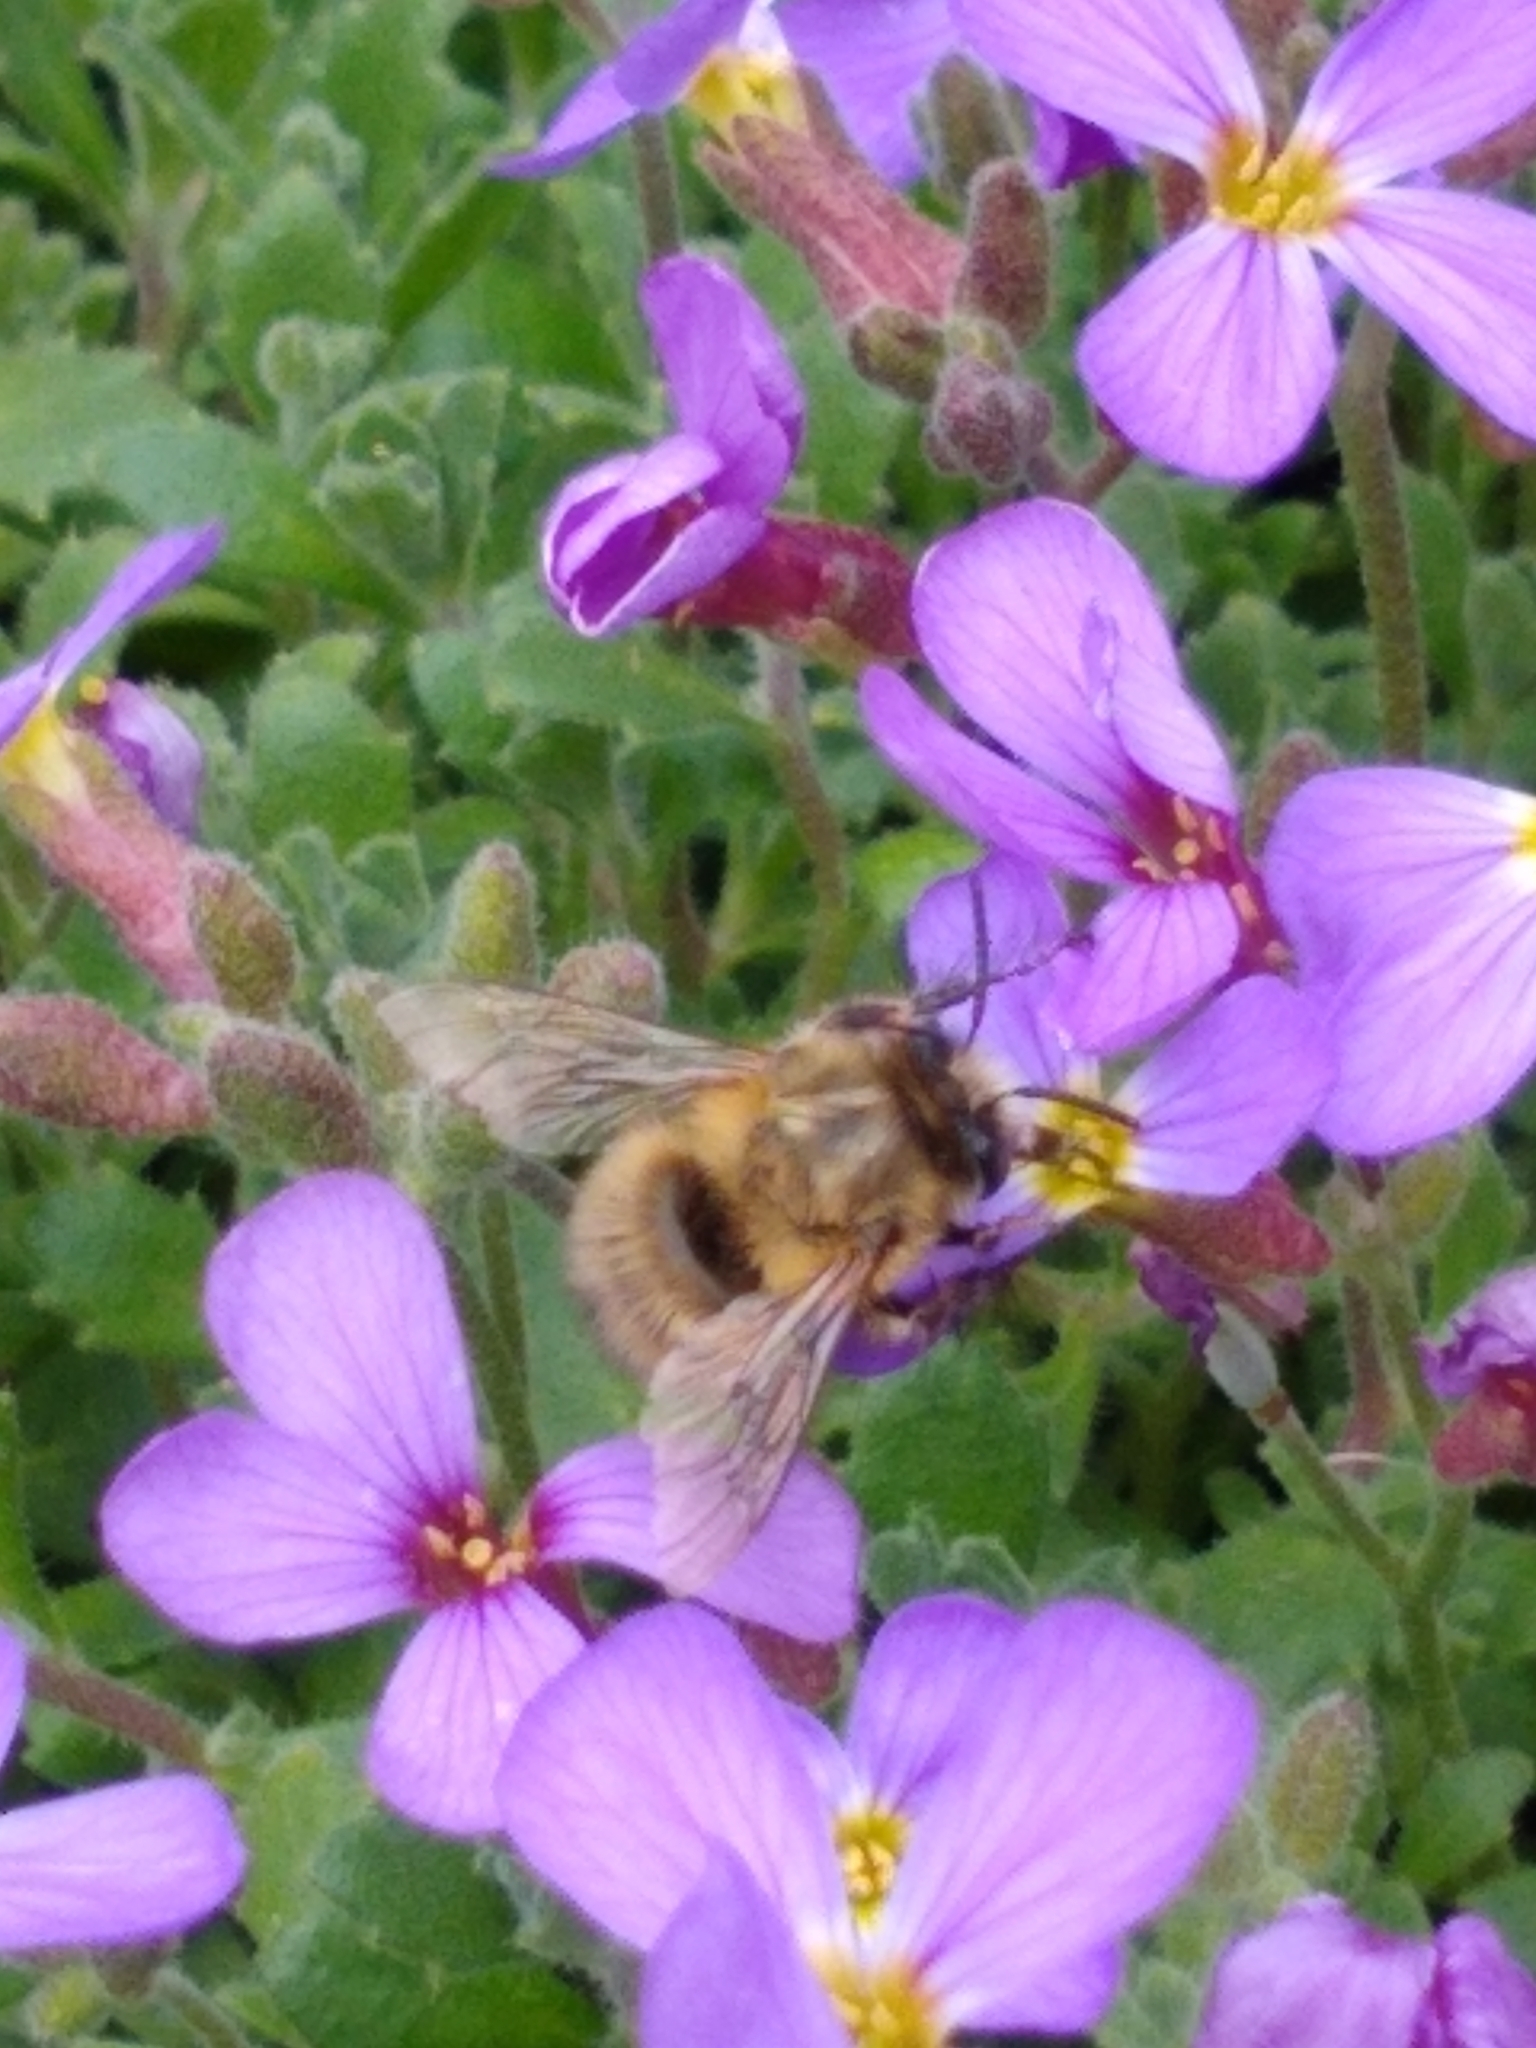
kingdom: Animalia
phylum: Arthropoda
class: Insecta
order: Hymenoptera
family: Apidae
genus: Anthophora
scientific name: Anthophora plumipes
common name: Hairy-footed flower bee
